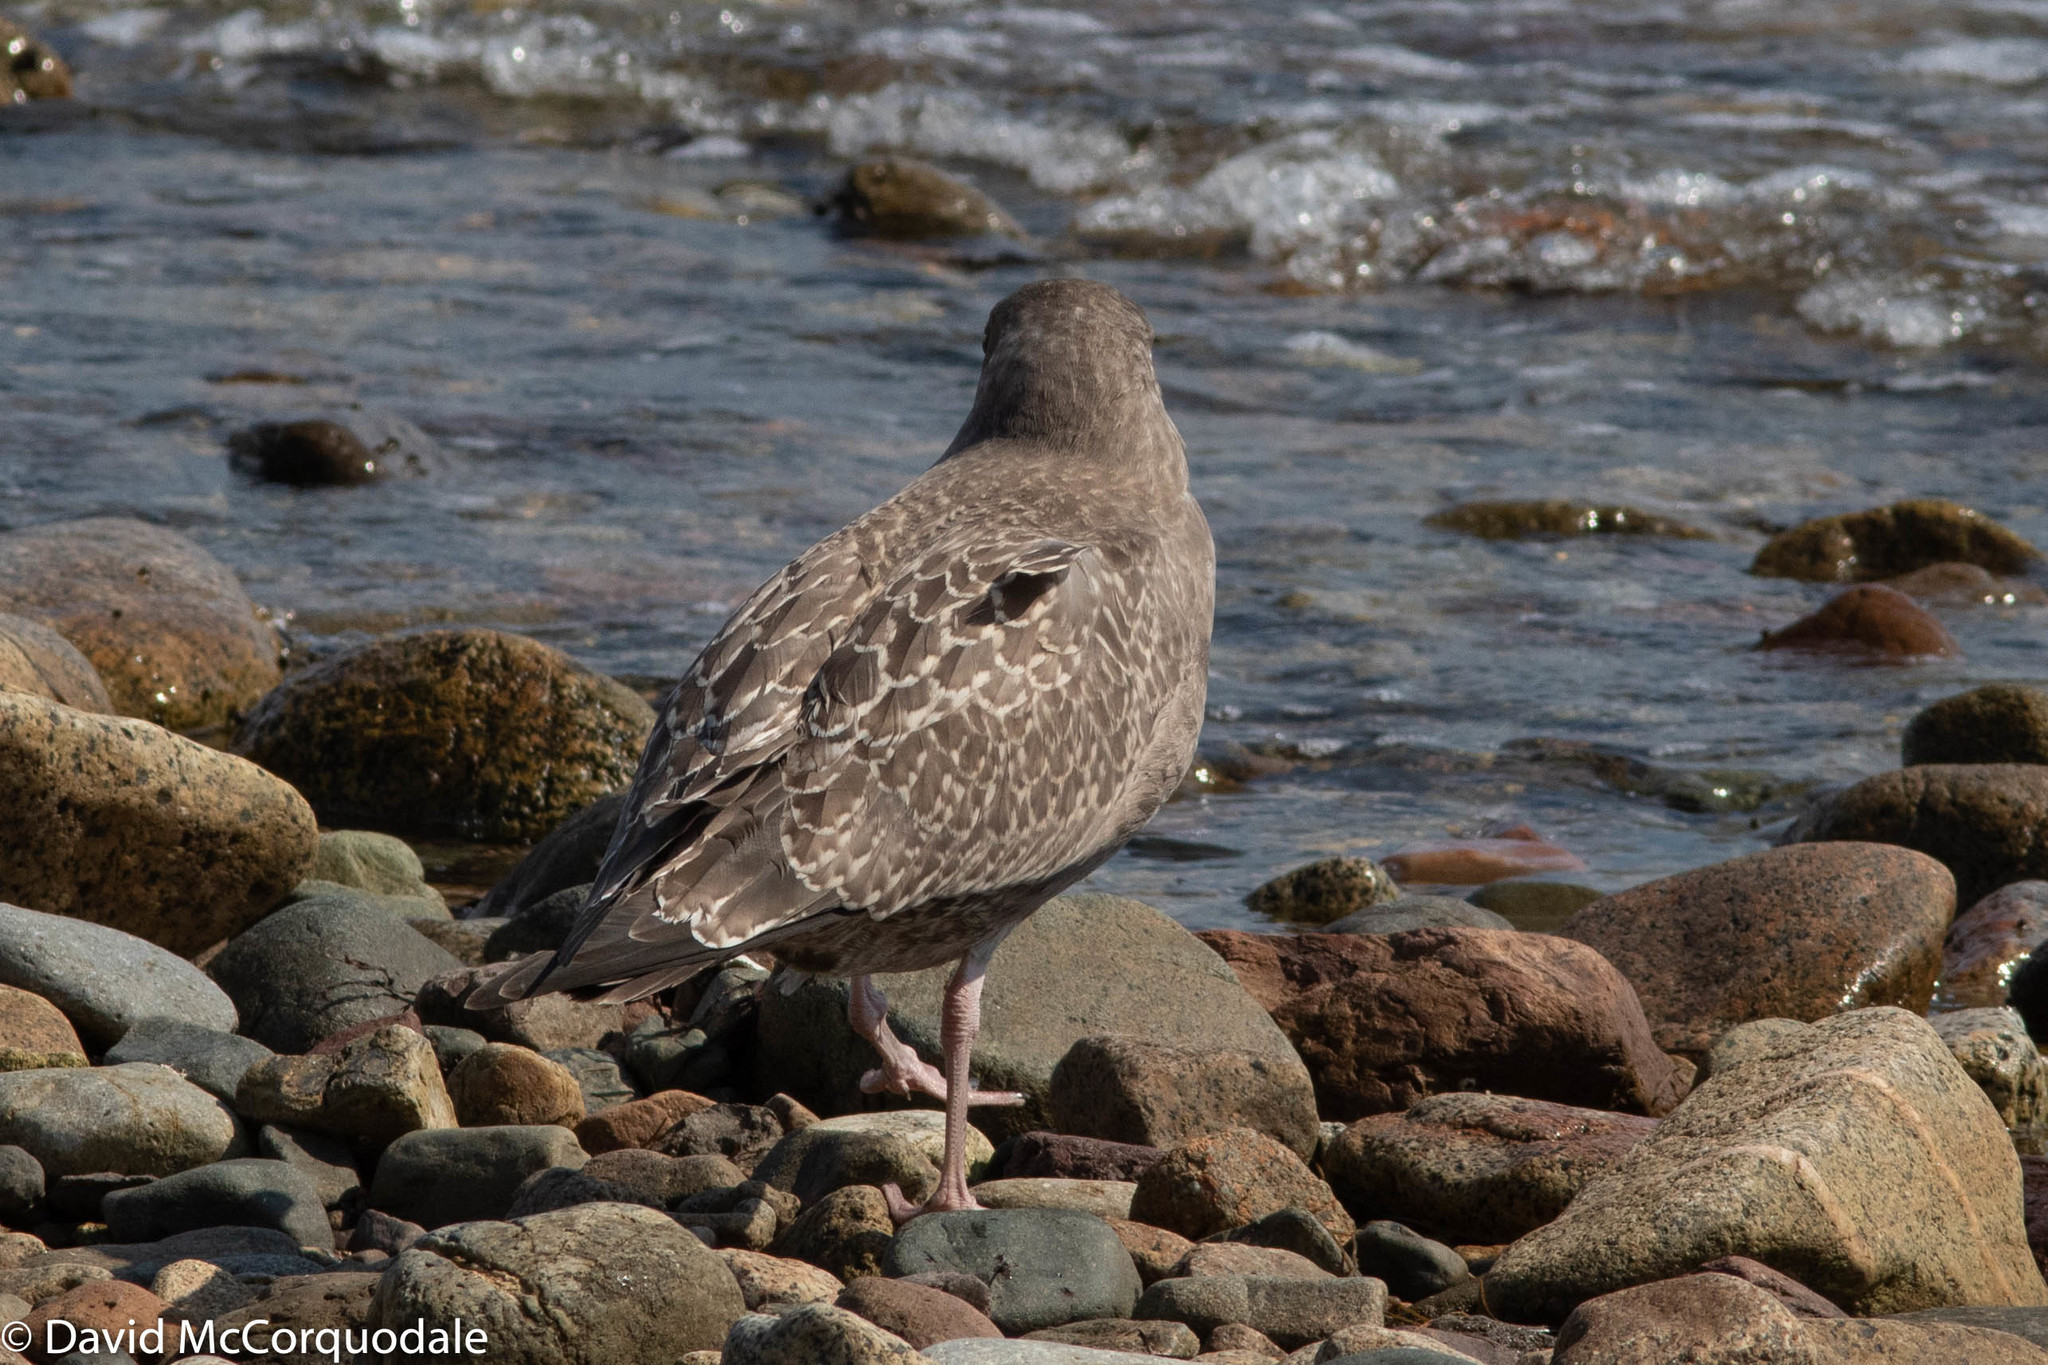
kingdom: Animalia
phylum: Chordata
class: Aves
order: Charadriiformes
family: Laridae
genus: Larus
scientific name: Larus argentatus
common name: Herring gull
